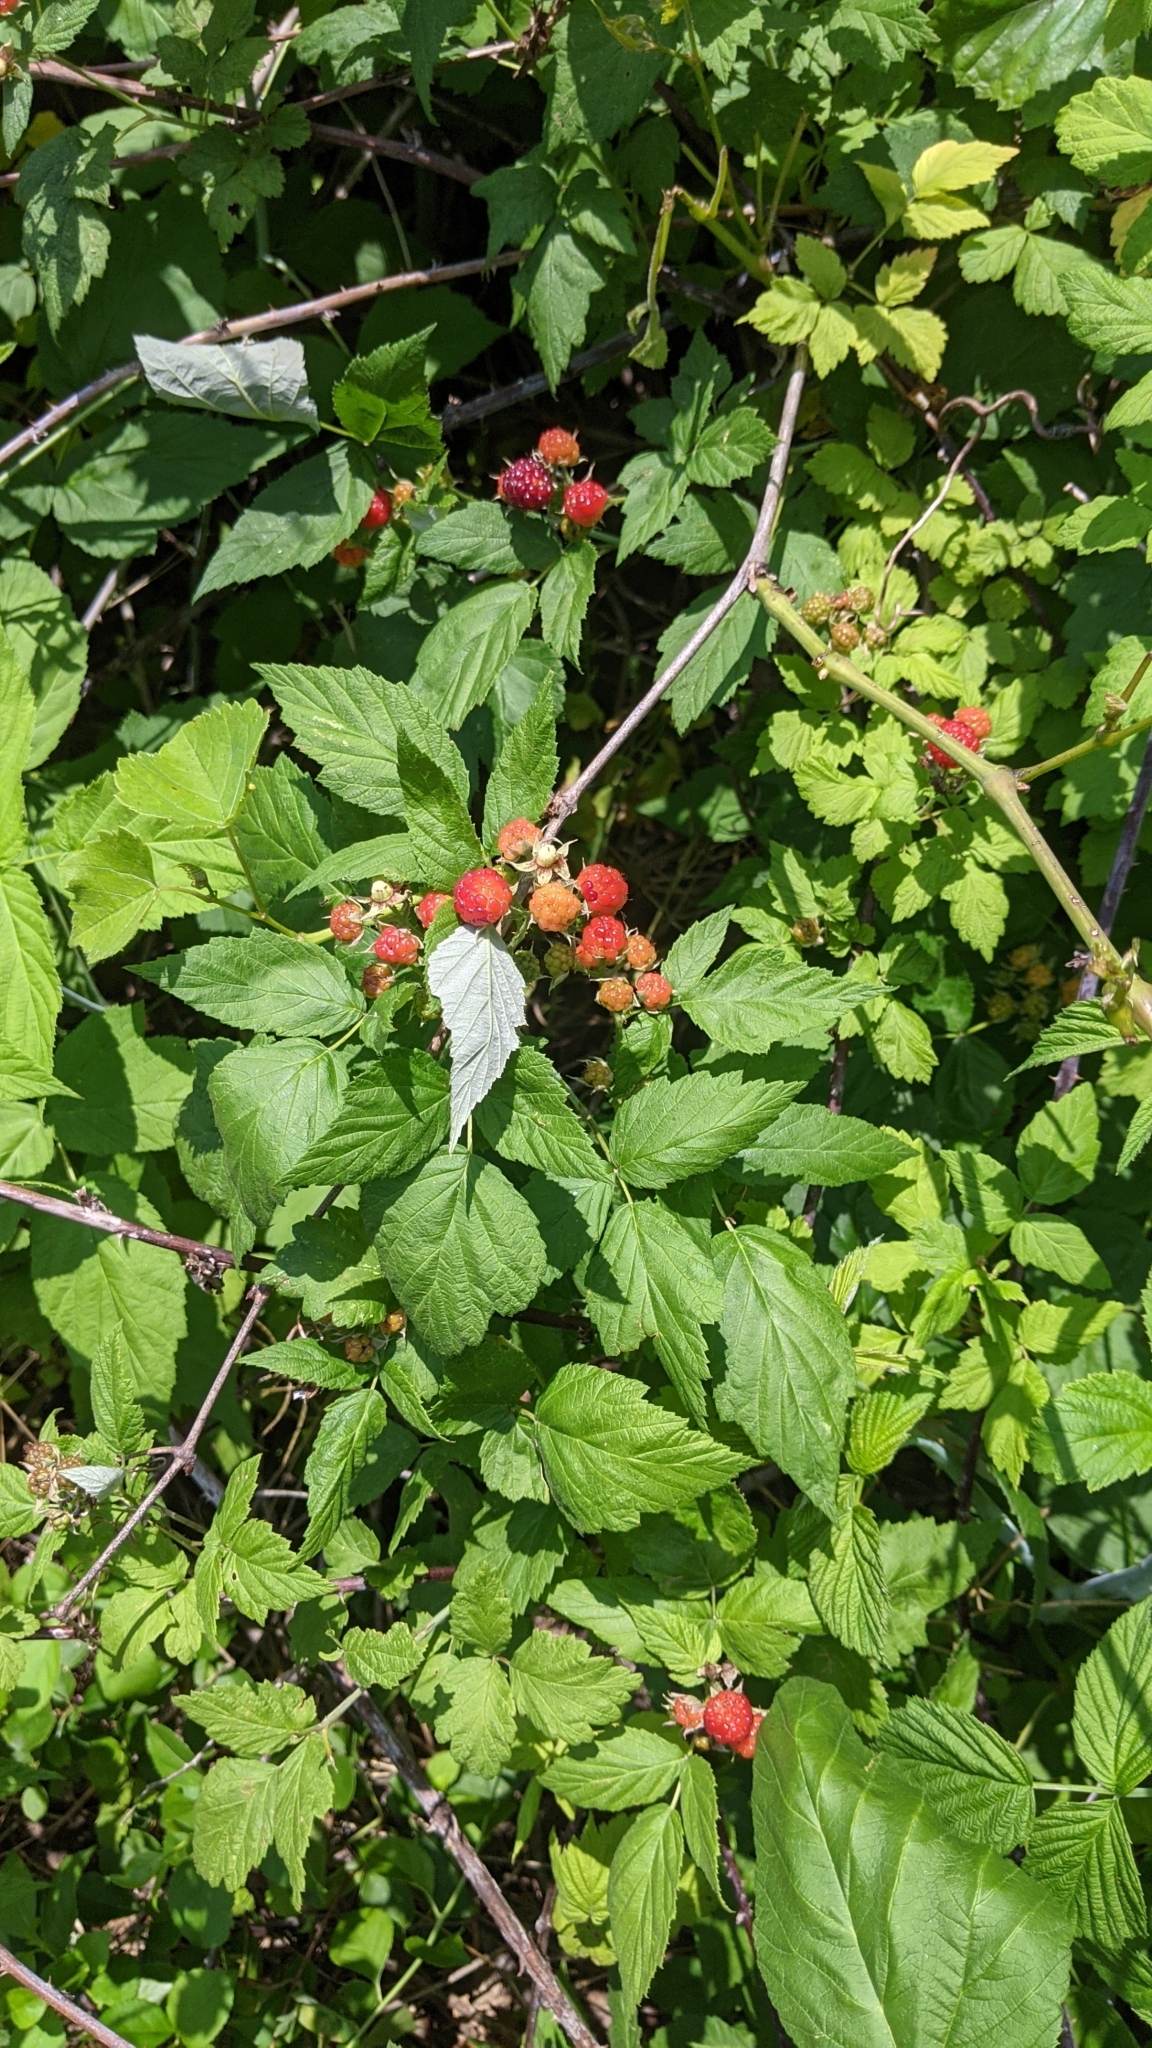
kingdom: Plantae
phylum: Tracheophyta
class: Magnoliopsida
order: Rosales
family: Rosaceae
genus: Rubus
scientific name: Rubus occidentalis
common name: Black raspberry
